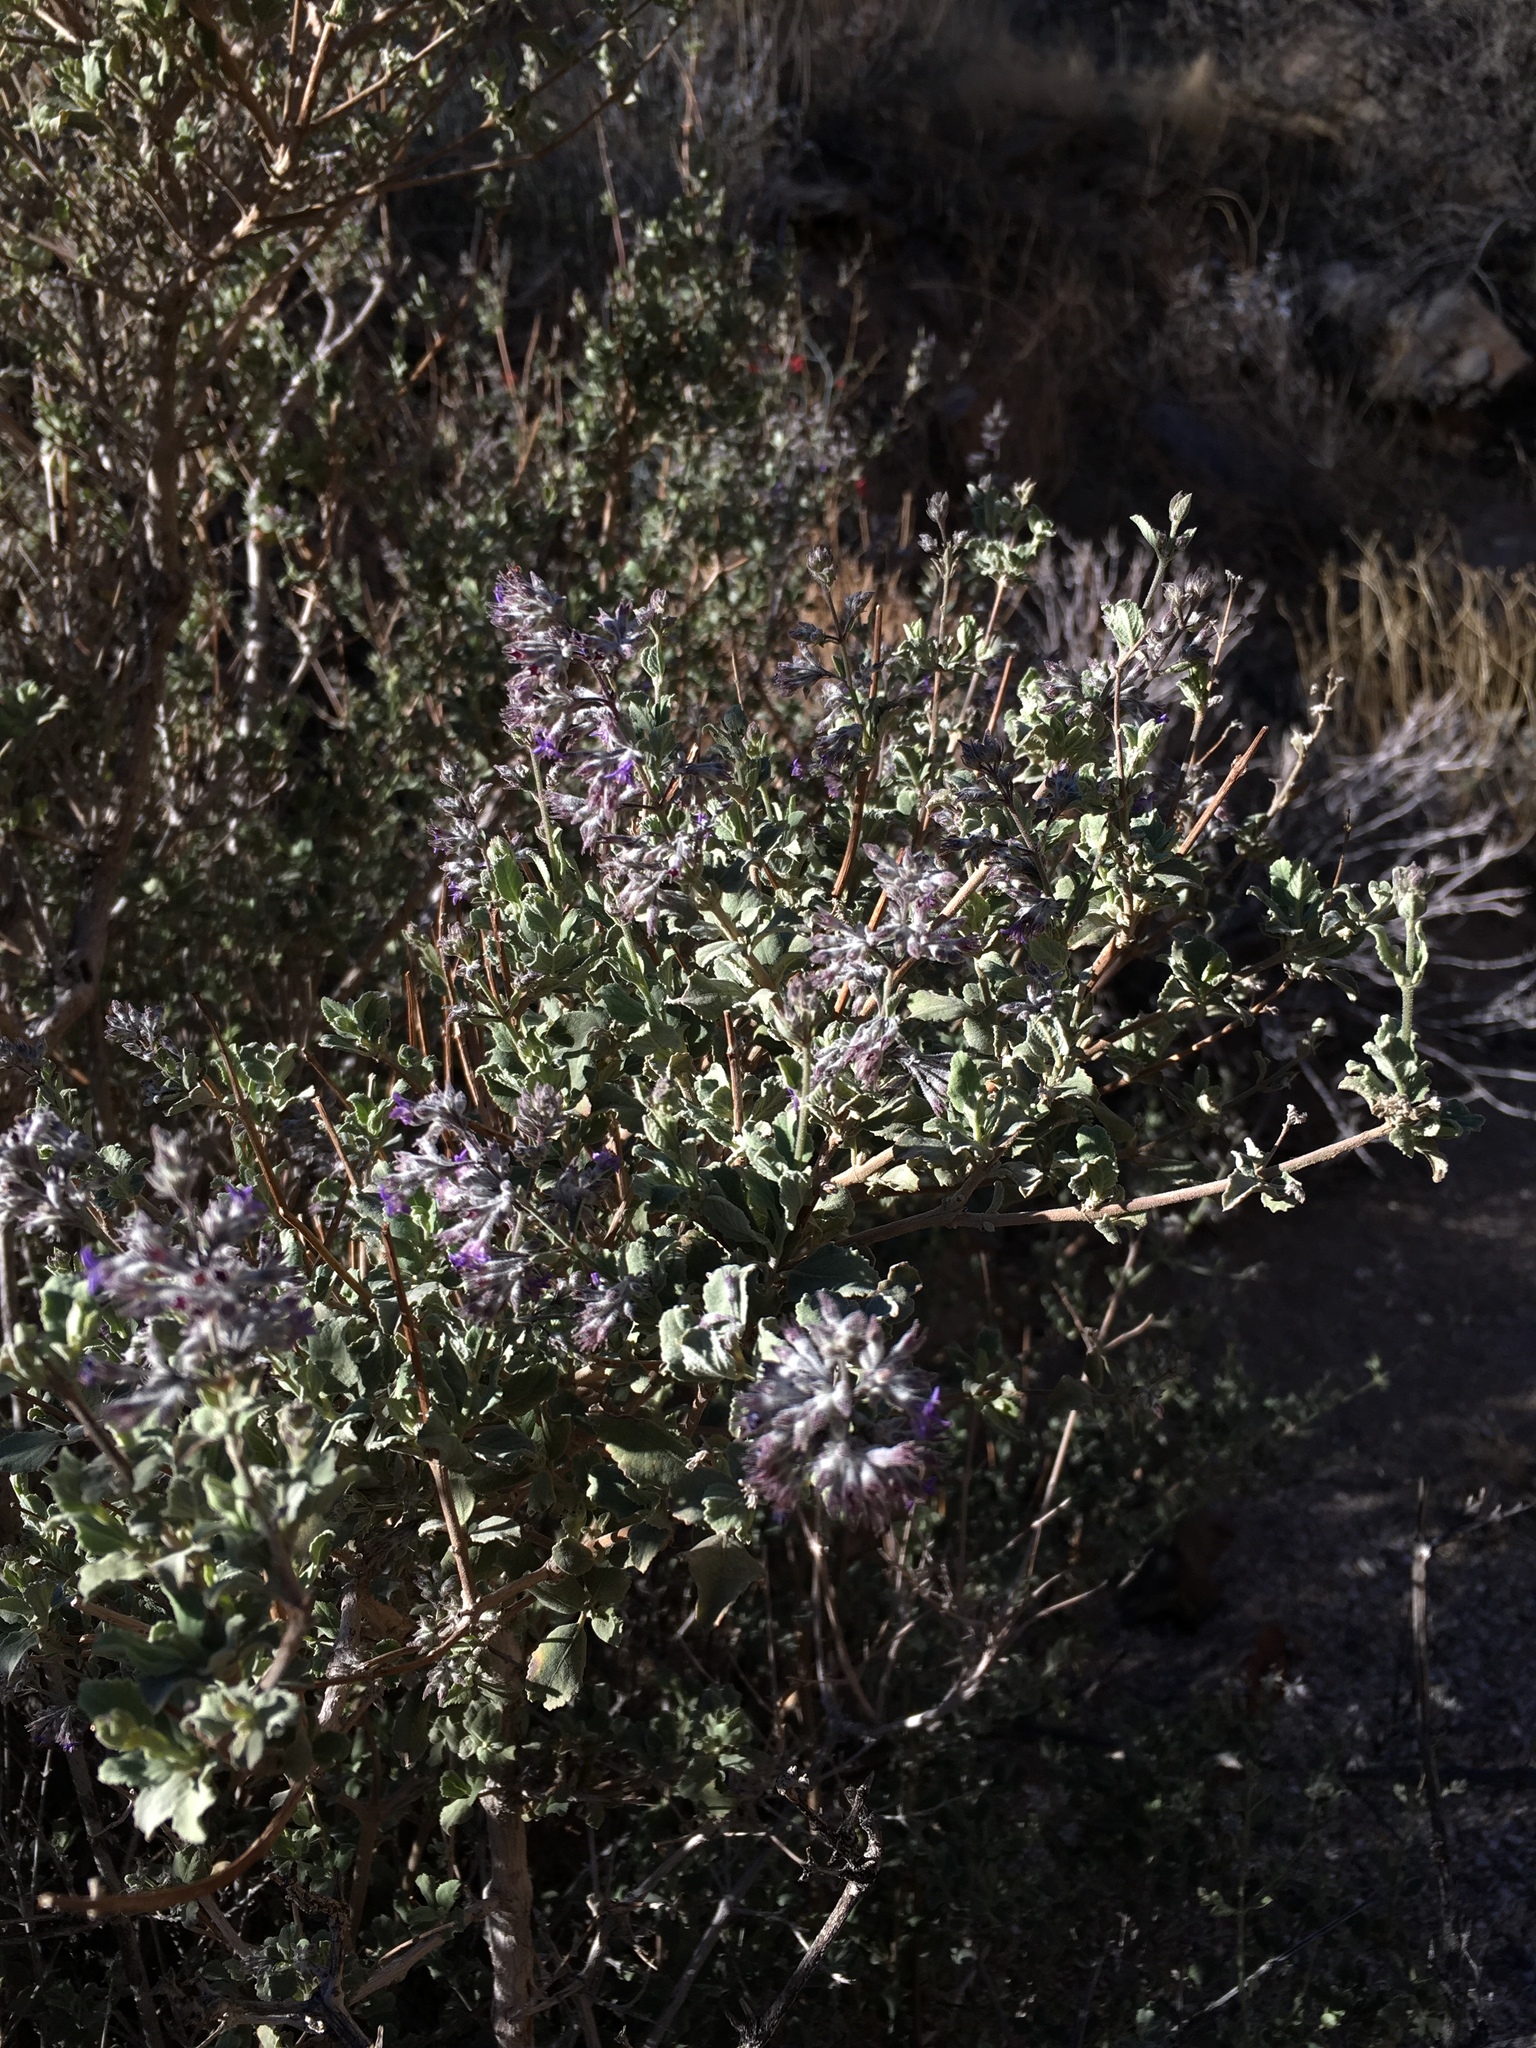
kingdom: Plantae
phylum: Tracheophyta
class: Magnoliopsida
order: Lamiales
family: Lamiaceae
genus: Condea
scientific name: Condea emoryi
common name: Chia
